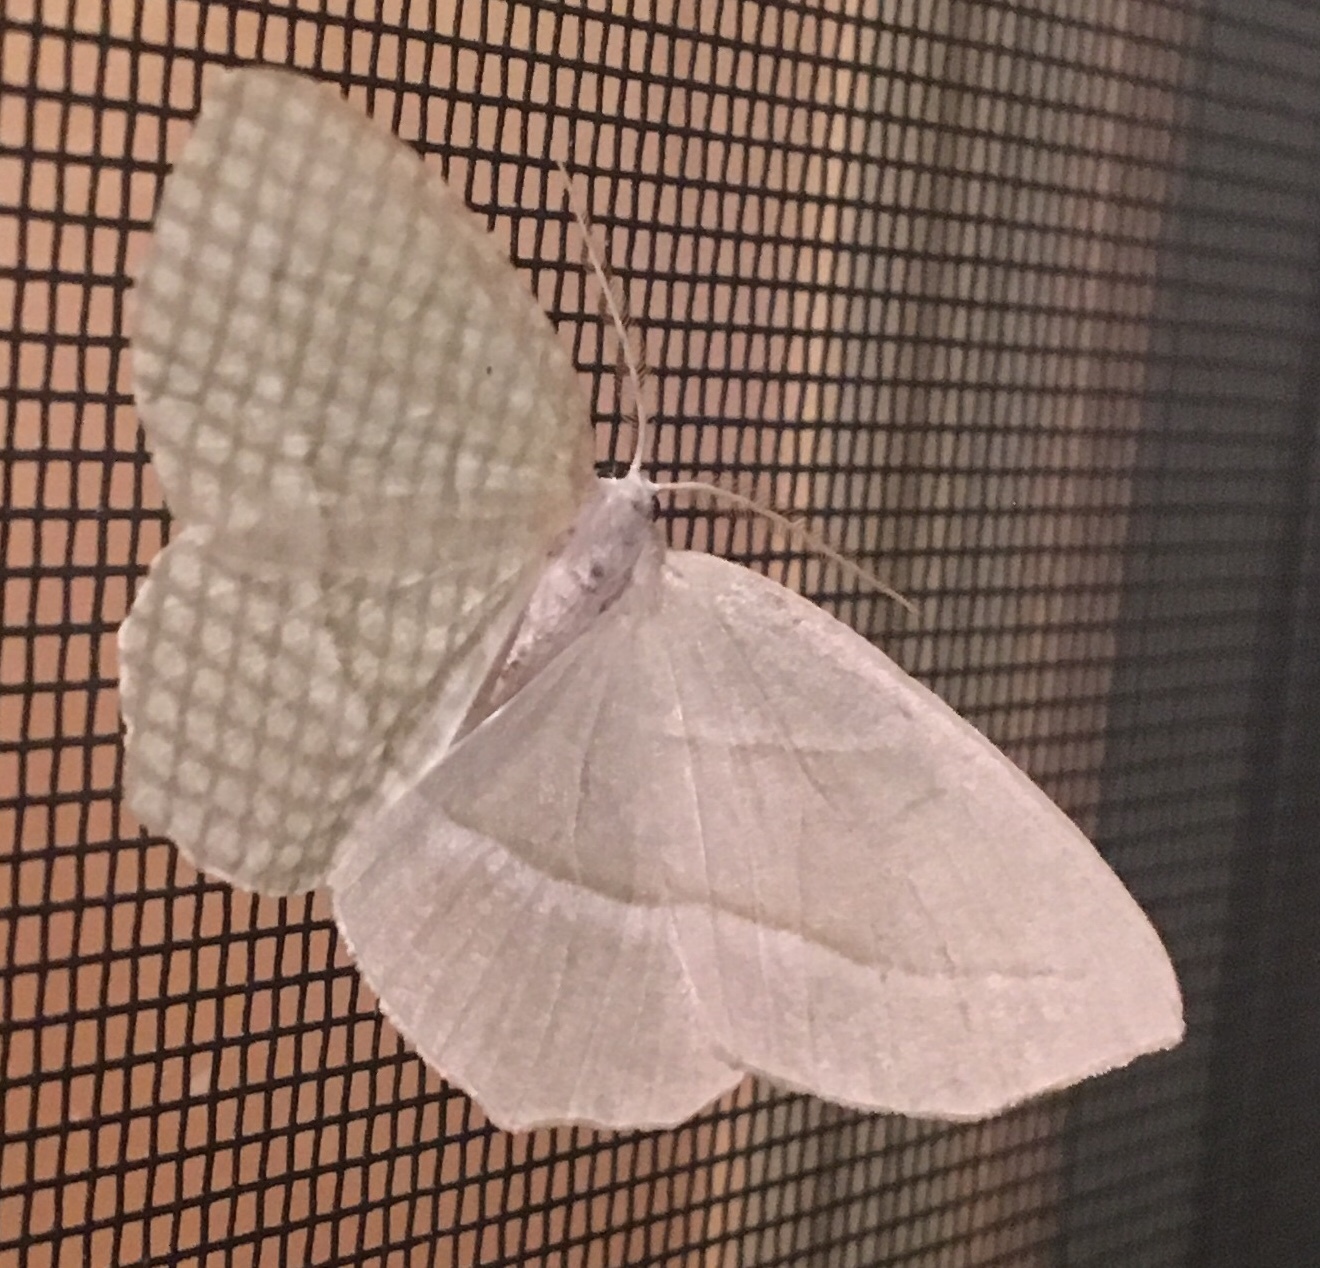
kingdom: Animalia
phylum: Arthropoda
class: Insecta
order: Lepidoptera
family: Geometridae
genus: Campaea
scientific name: Campaea perlata
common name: Fringed looper
